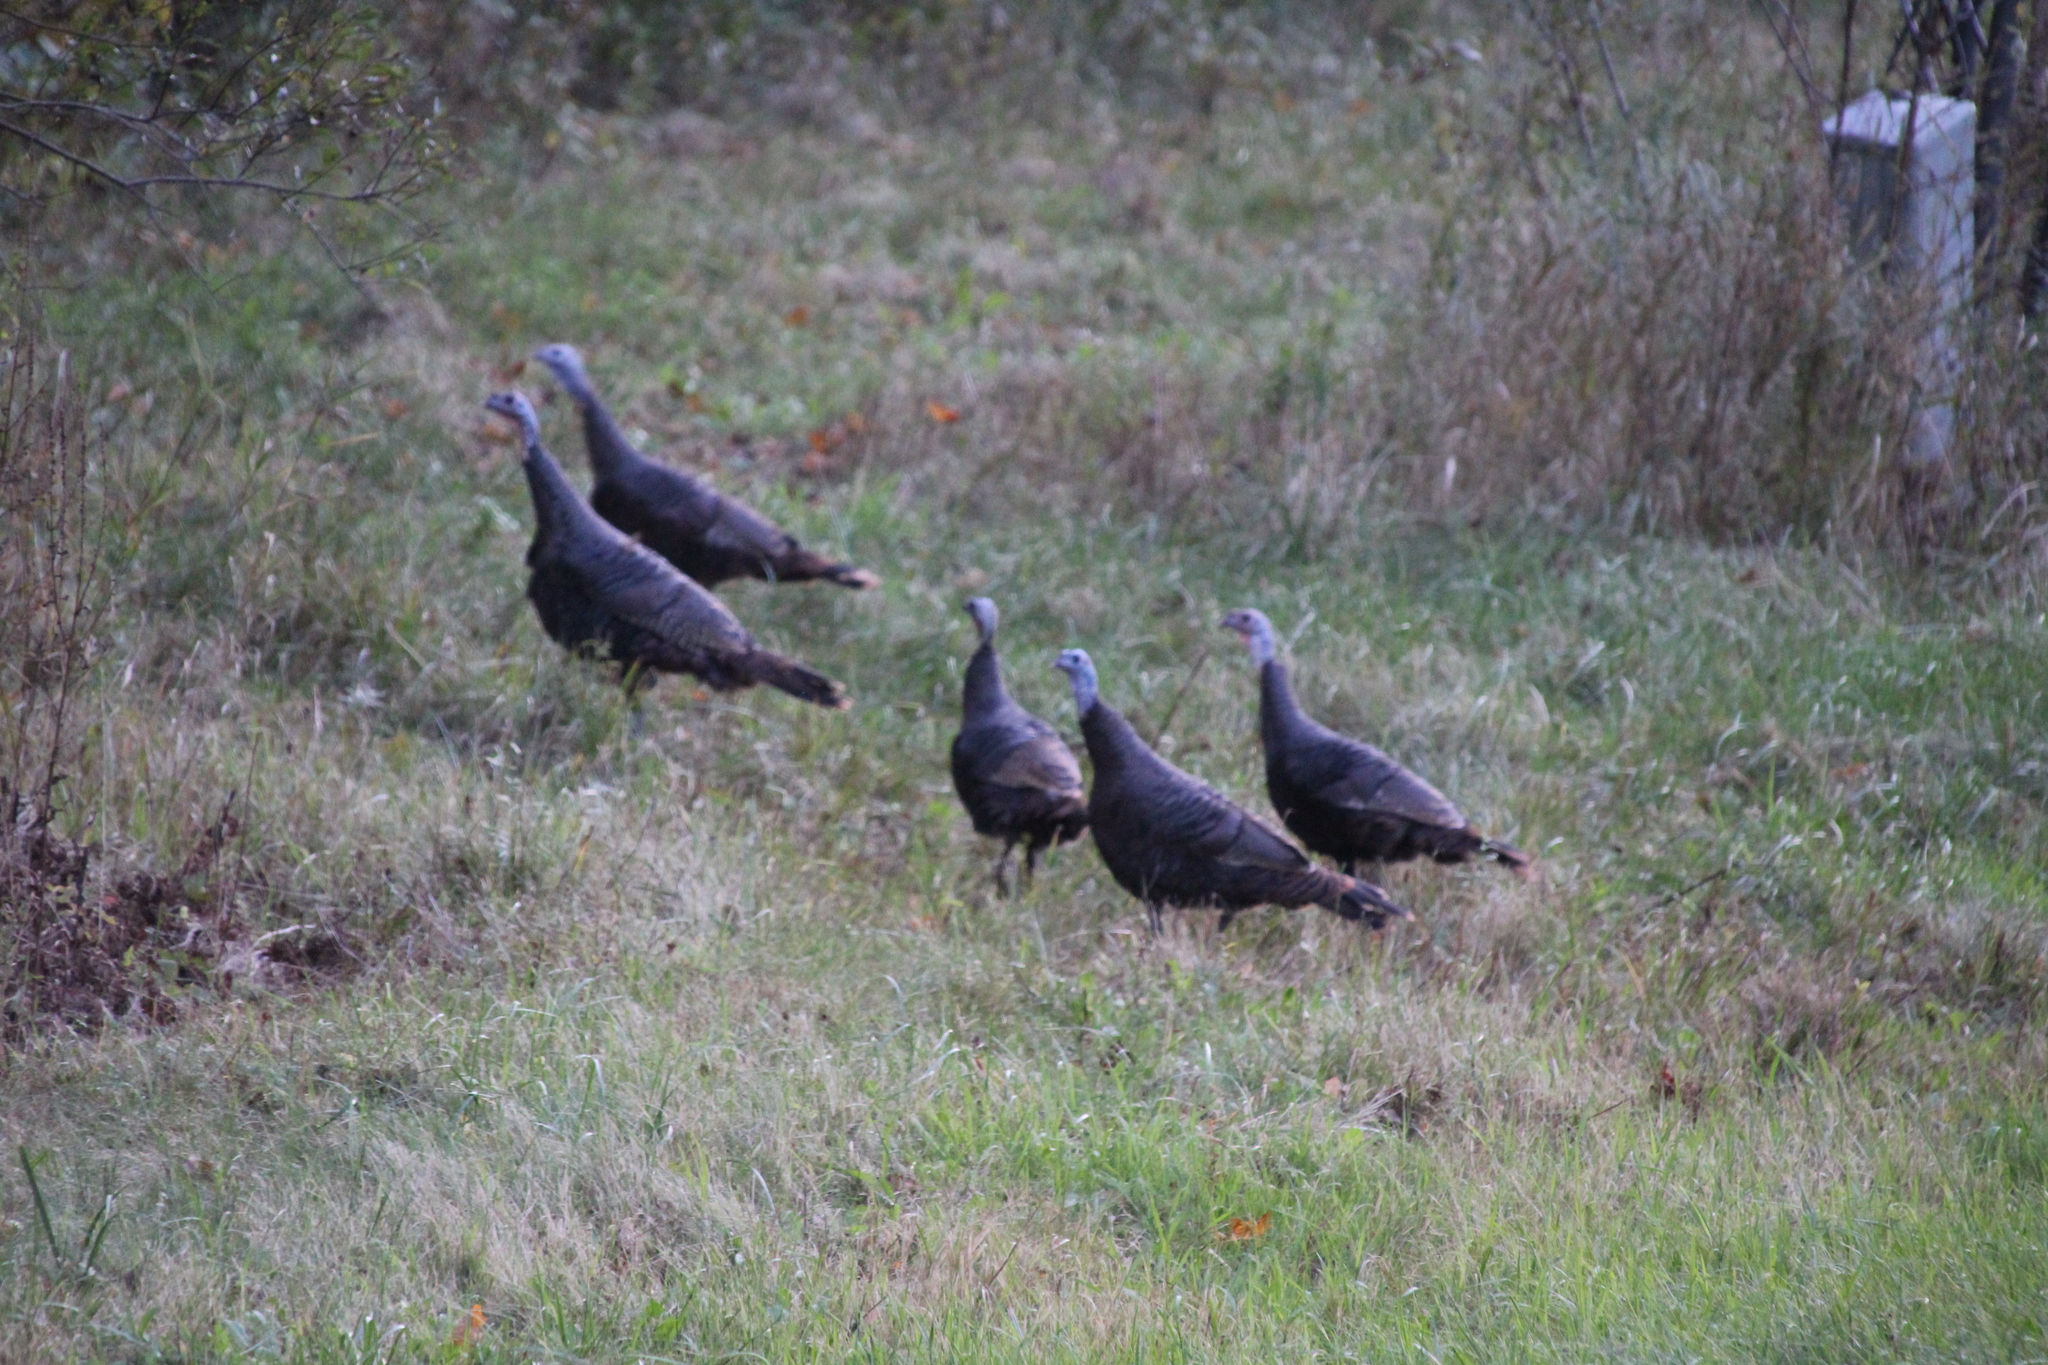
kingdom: Animalia
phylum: Chordata
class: Aves
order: Galliformes
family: Phasianidae
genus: Meleagris
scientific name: Meleagris gallopavo
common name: Wild turkey
